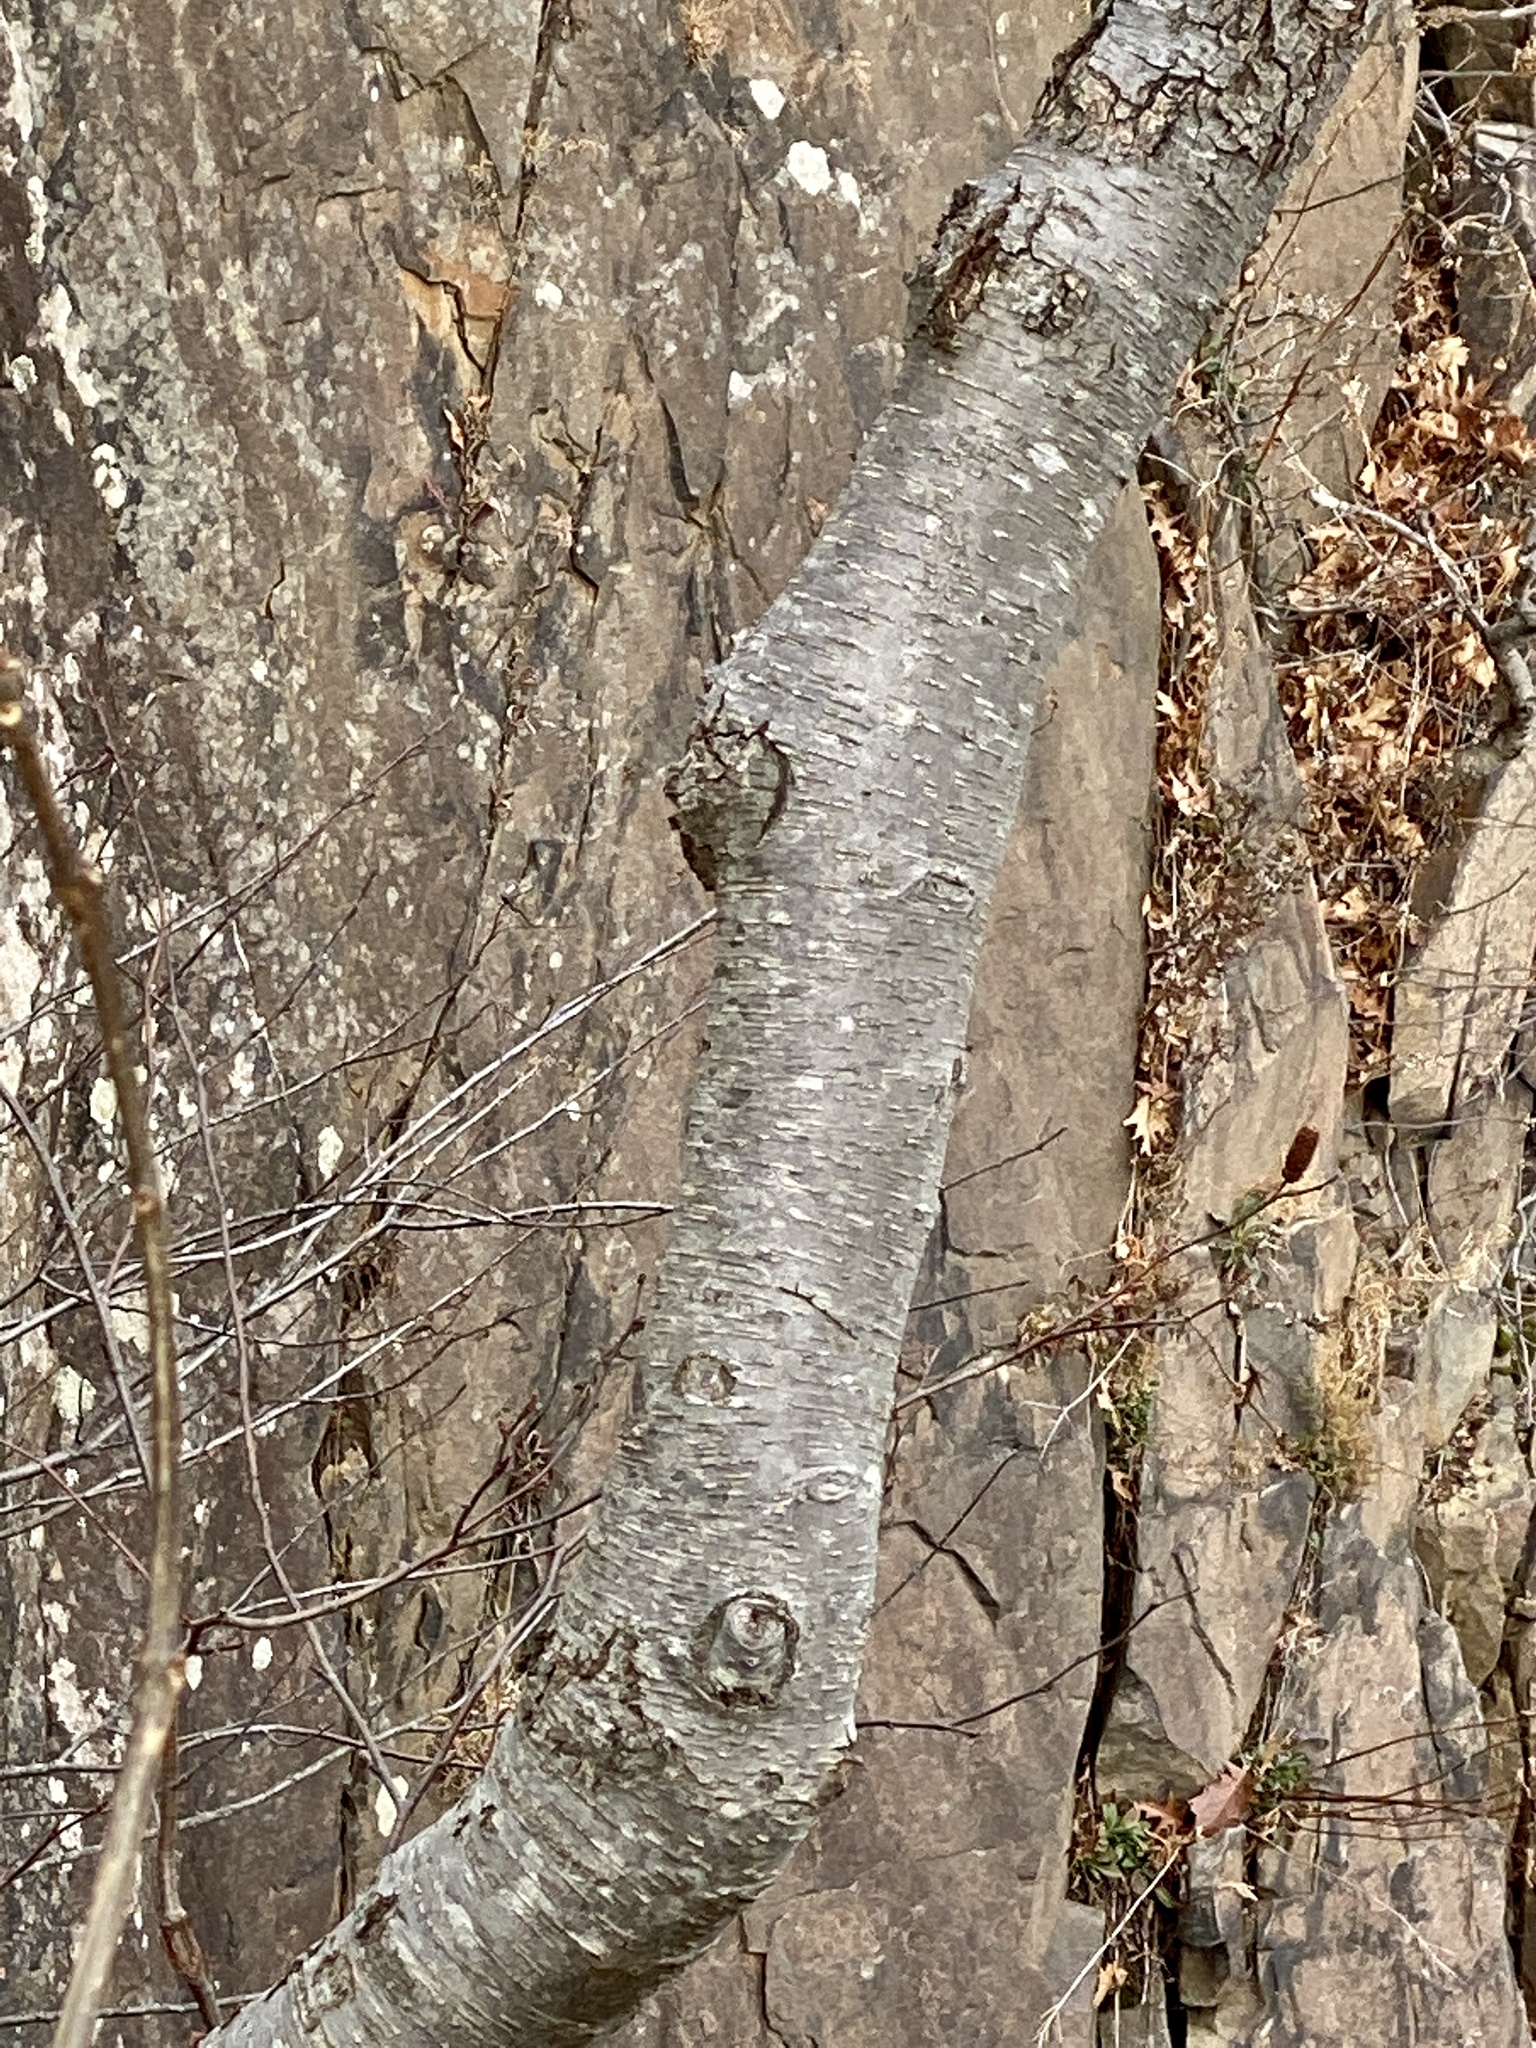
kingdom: Plantae
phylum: Tracheophyta
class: Magnoliopsida
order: Fagales
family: Betulaceae
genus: Betula
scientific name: Betula lenta
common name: Black birch
